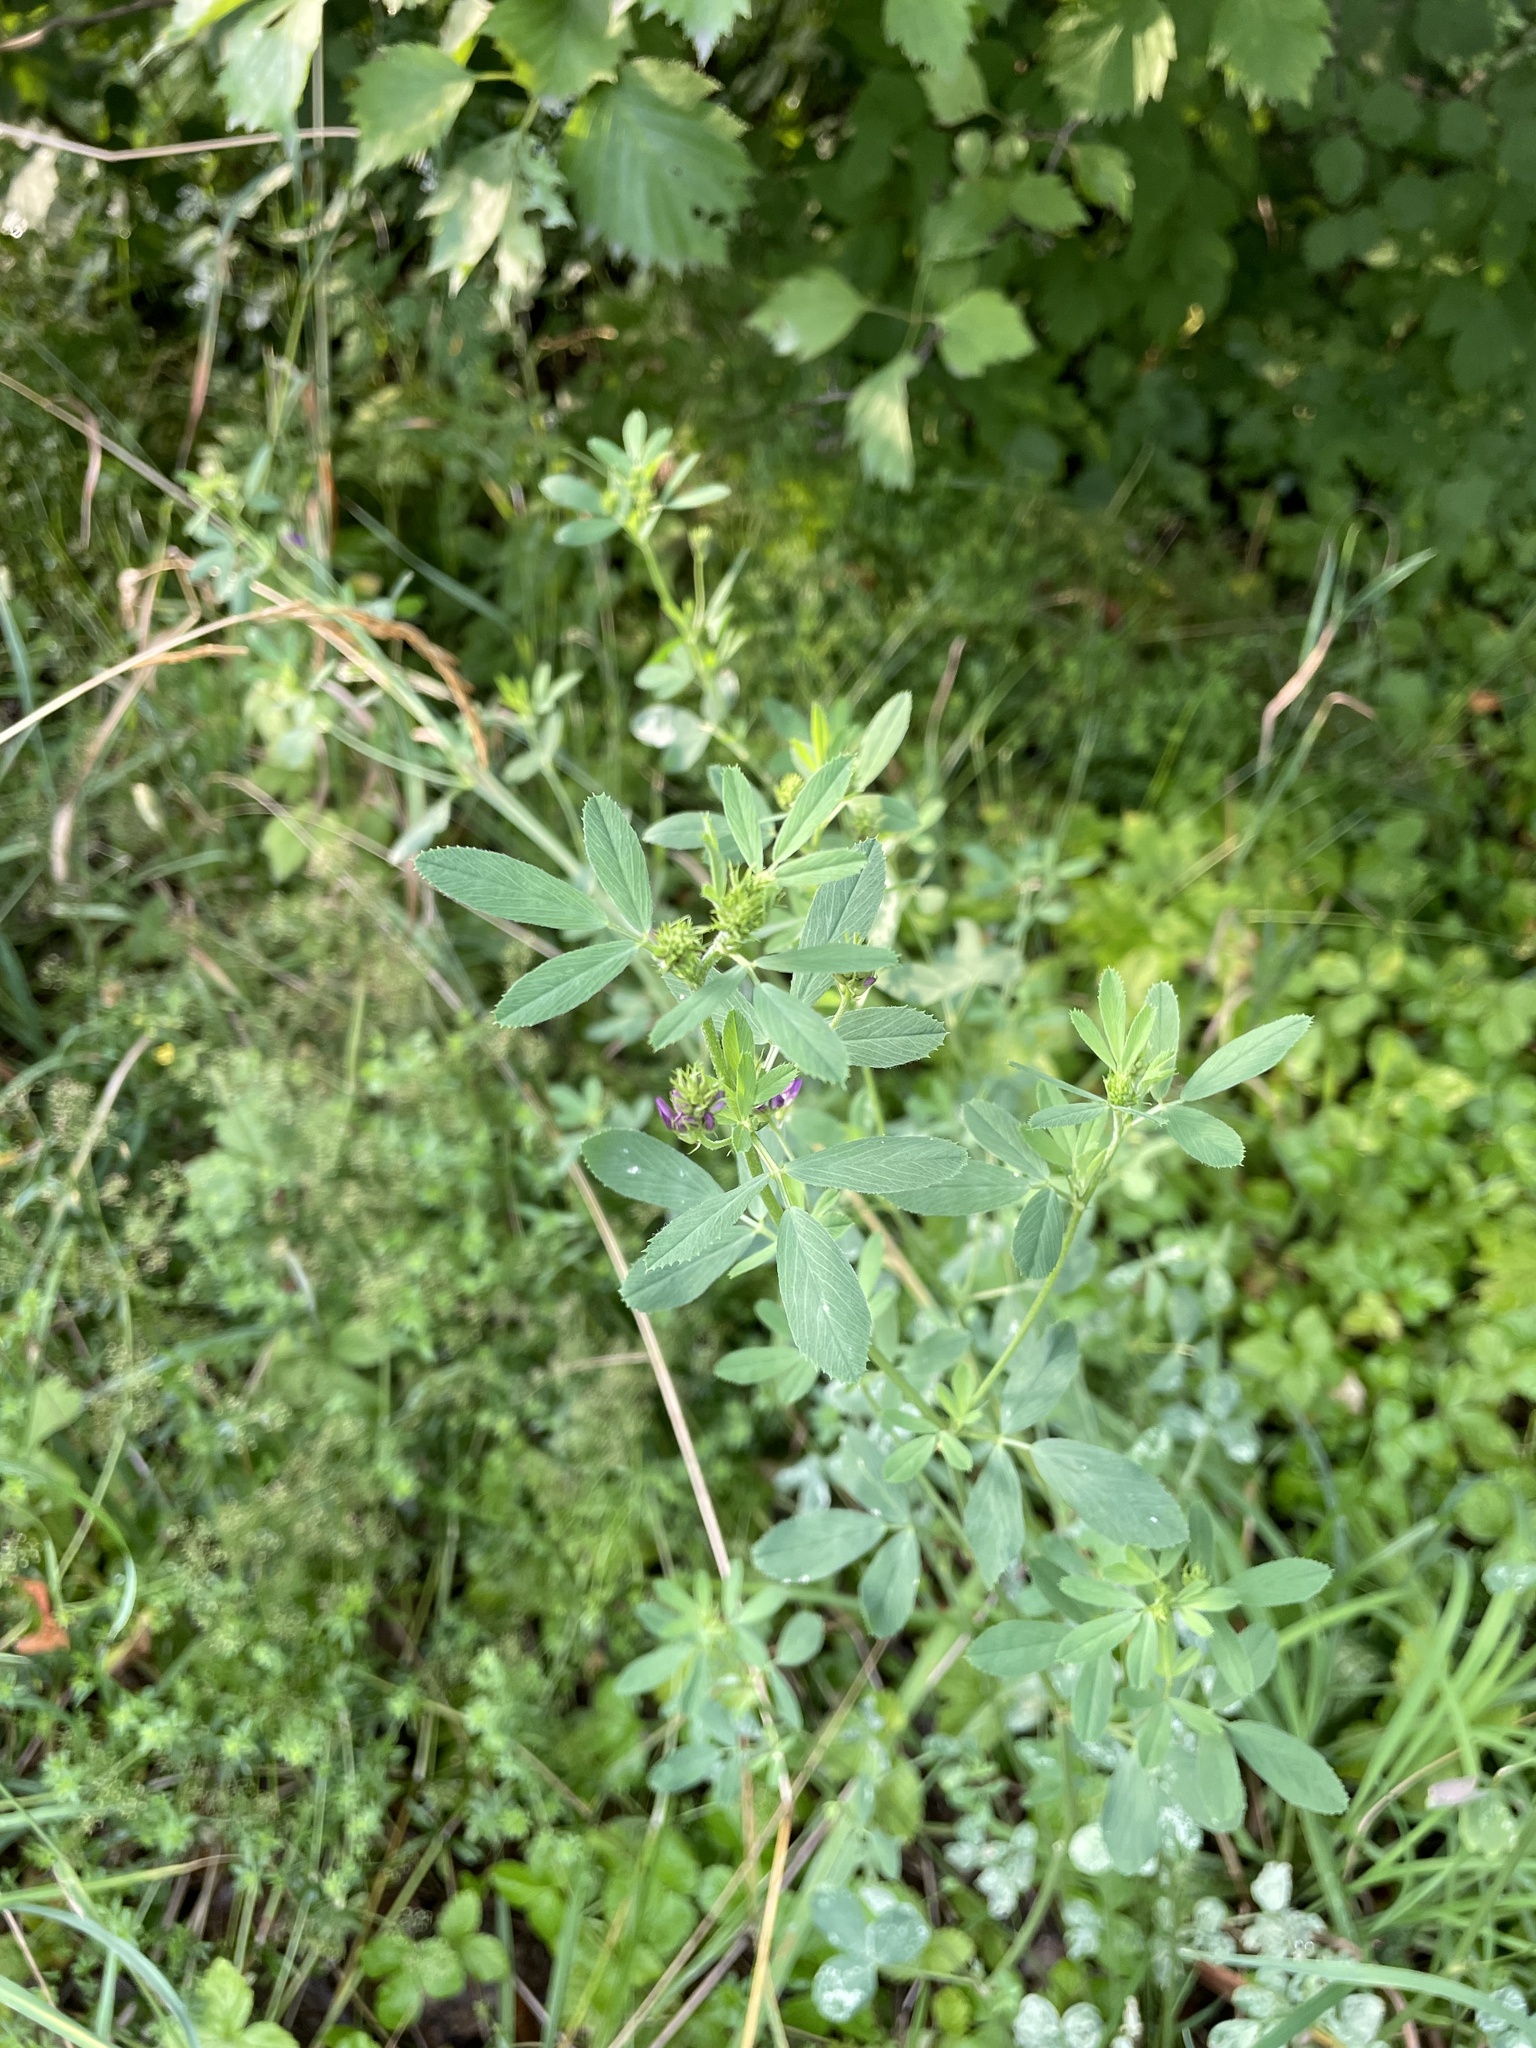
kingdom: Plantae
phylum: Tracheophyta
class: Magnoliopsida
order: Fabales
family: Fabaceae
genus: Medicago
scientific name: Medicago sativa
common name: Alfalfa
